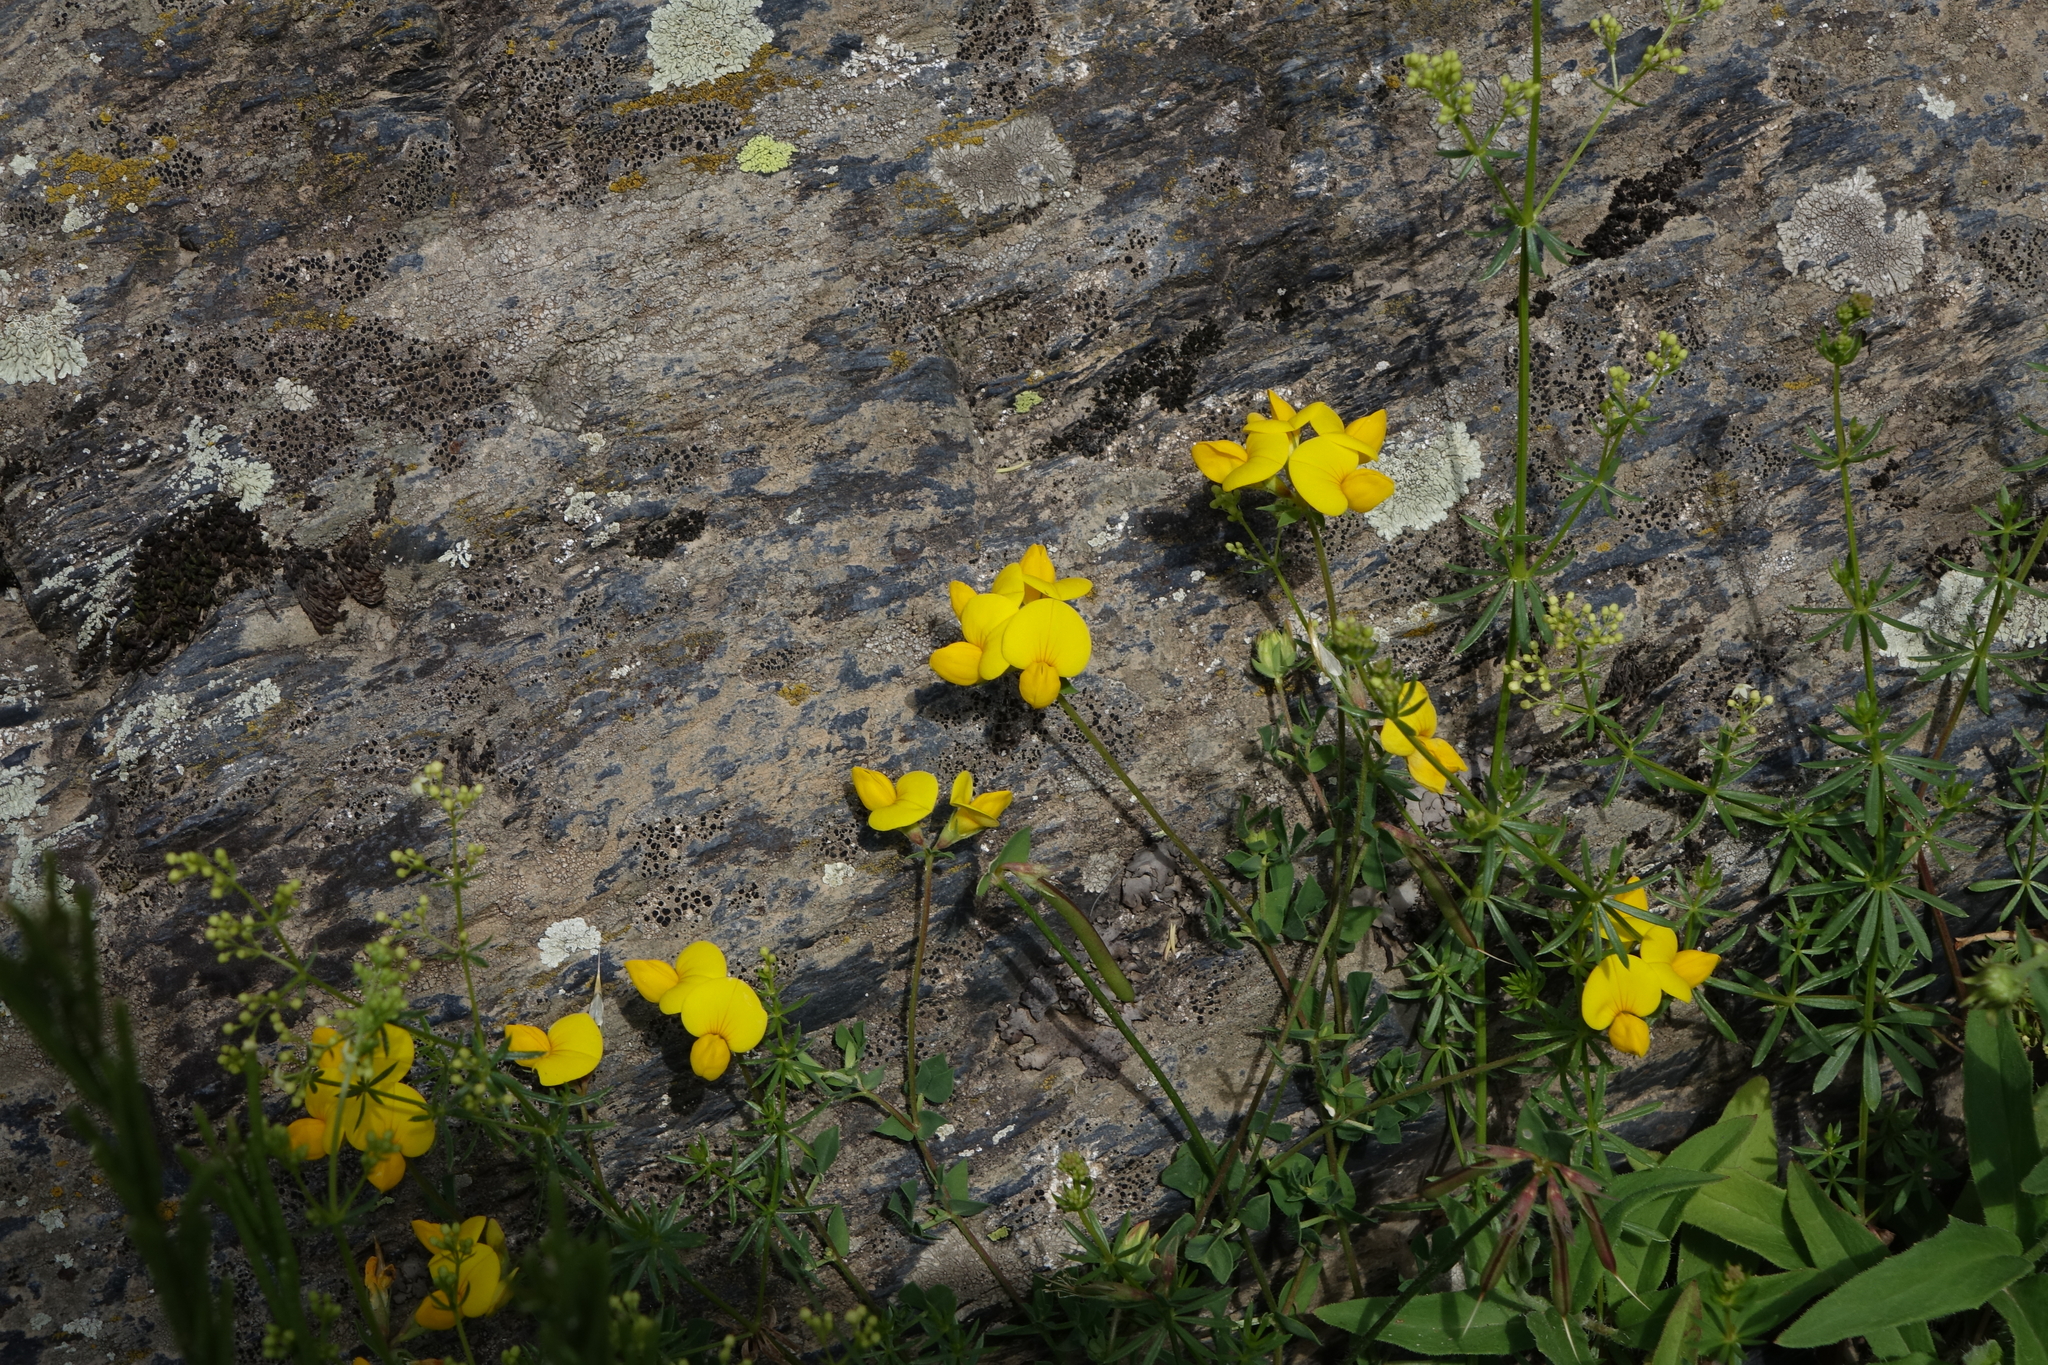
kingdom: Plantae
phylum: Tracheophyta
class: Magnoliopsida
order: Fabales
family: Fabaceae
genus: Lotus
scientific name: Lotus corniculatus
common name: Common bird's-foot-trefoil
